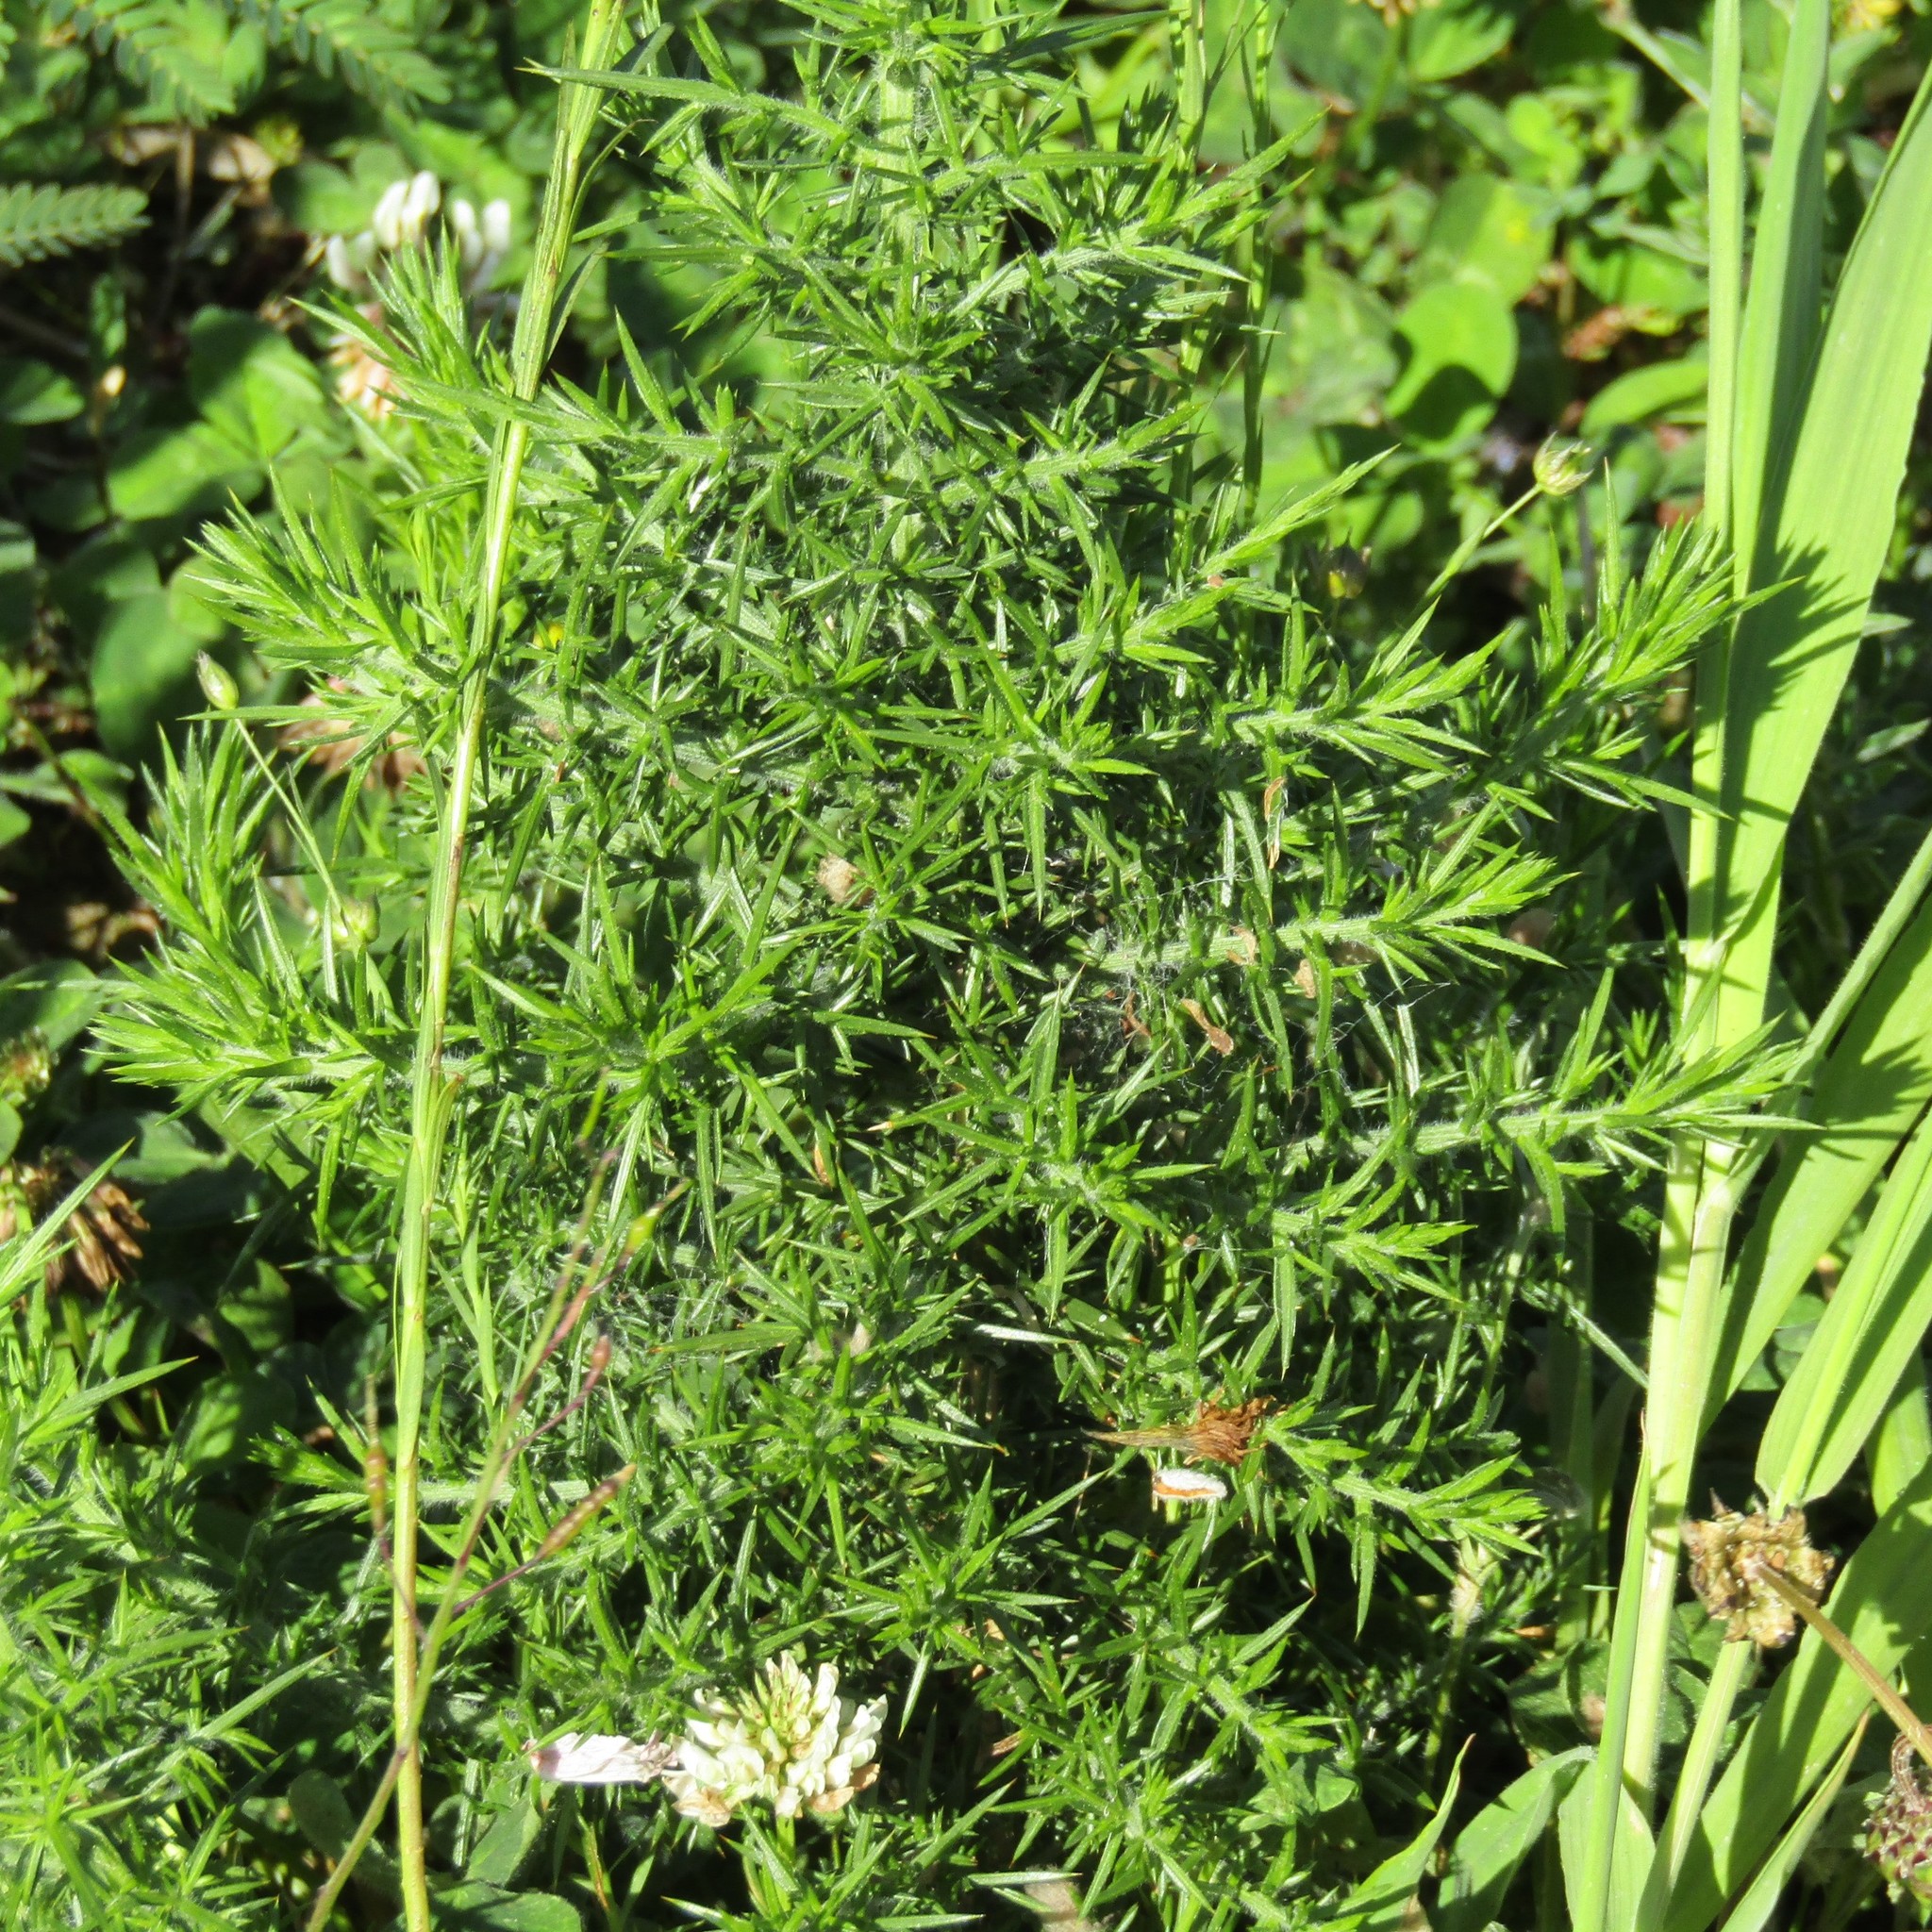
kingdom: Plantae
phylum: Tracheophyta
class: Magnoliopsida
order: Fabales
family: Fabaceae
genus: Ulex
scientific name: Ulex europaeus
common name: Common gorse
